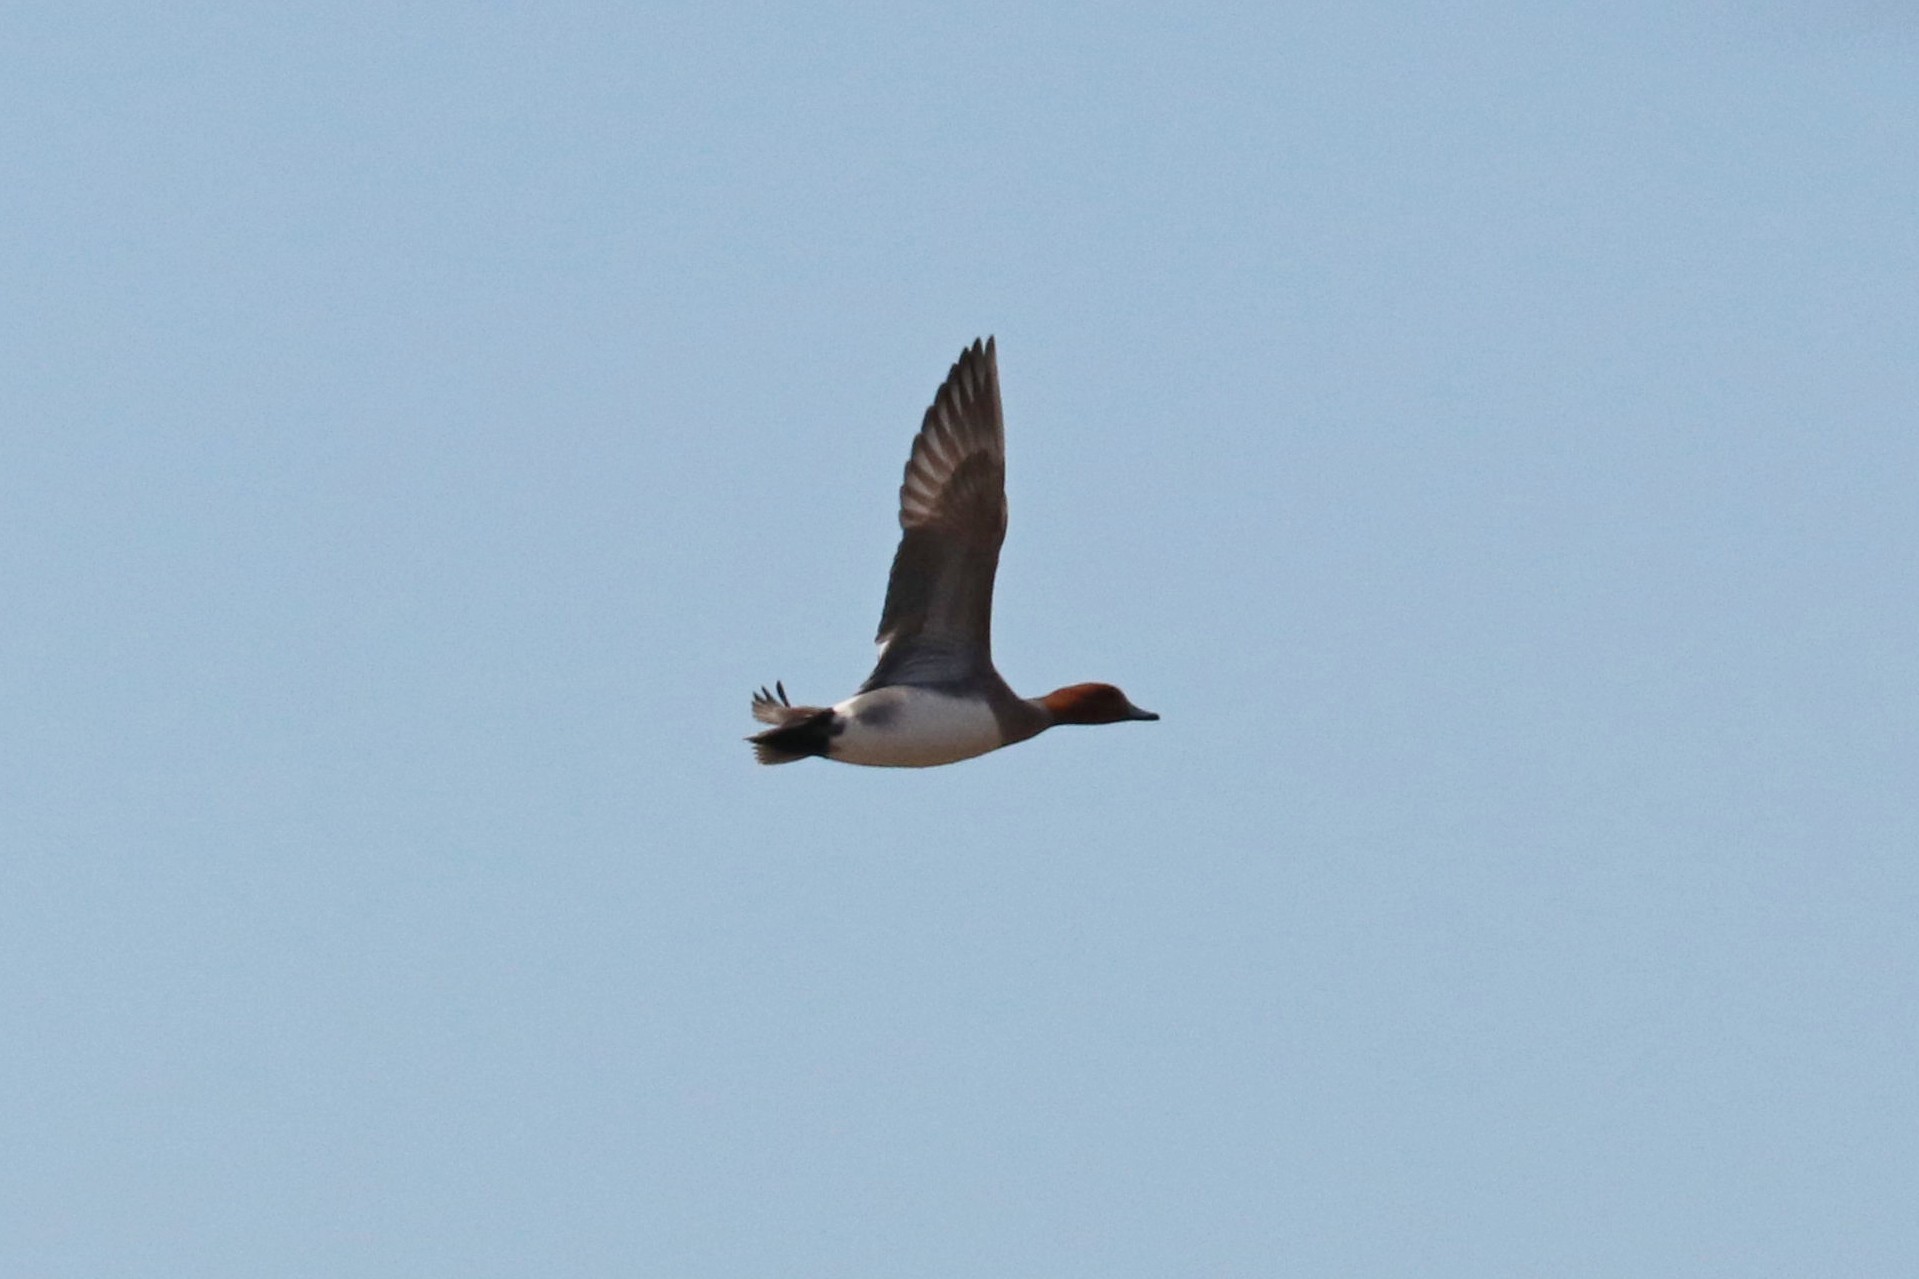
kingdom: Animalia
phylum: Chordata
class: Aves
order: Anseriformes
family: Anatidae
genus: Mareca
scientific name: Mareca penelope
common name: Eurasian wigeon
